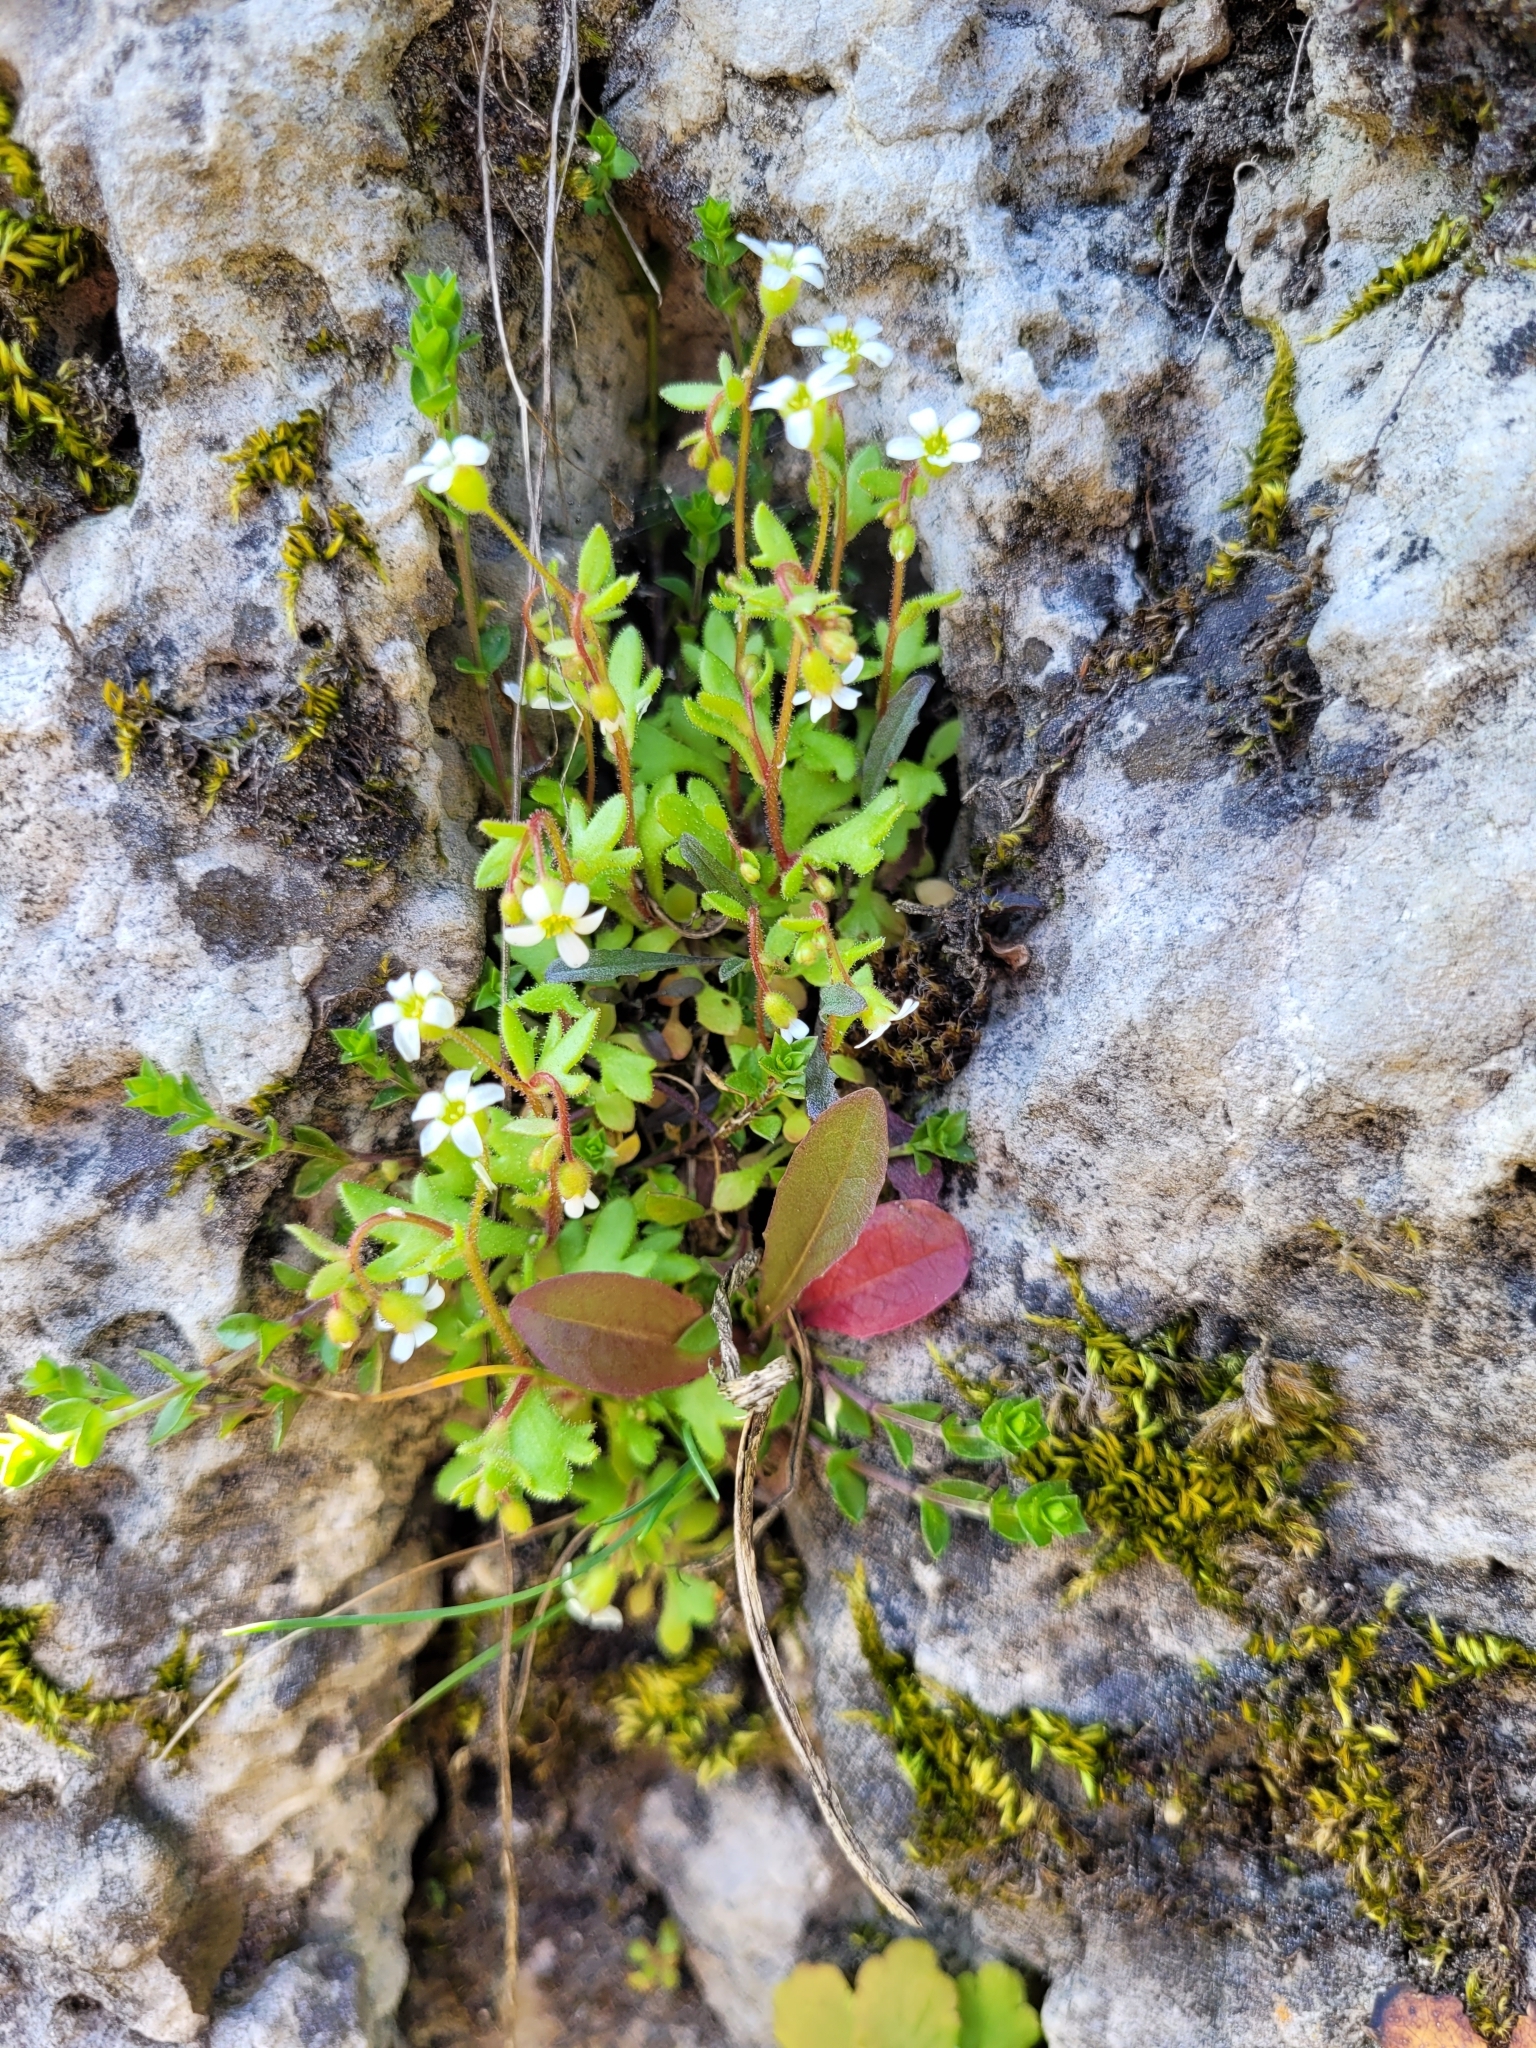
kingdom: Plantae
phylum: Tracheophyta
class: Magnoliopsida
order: Saxifragales
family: Saxifragaceae
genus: Saxifraga
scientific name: Saxifraga tridactylites
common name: Rue-leaved saxifrage
